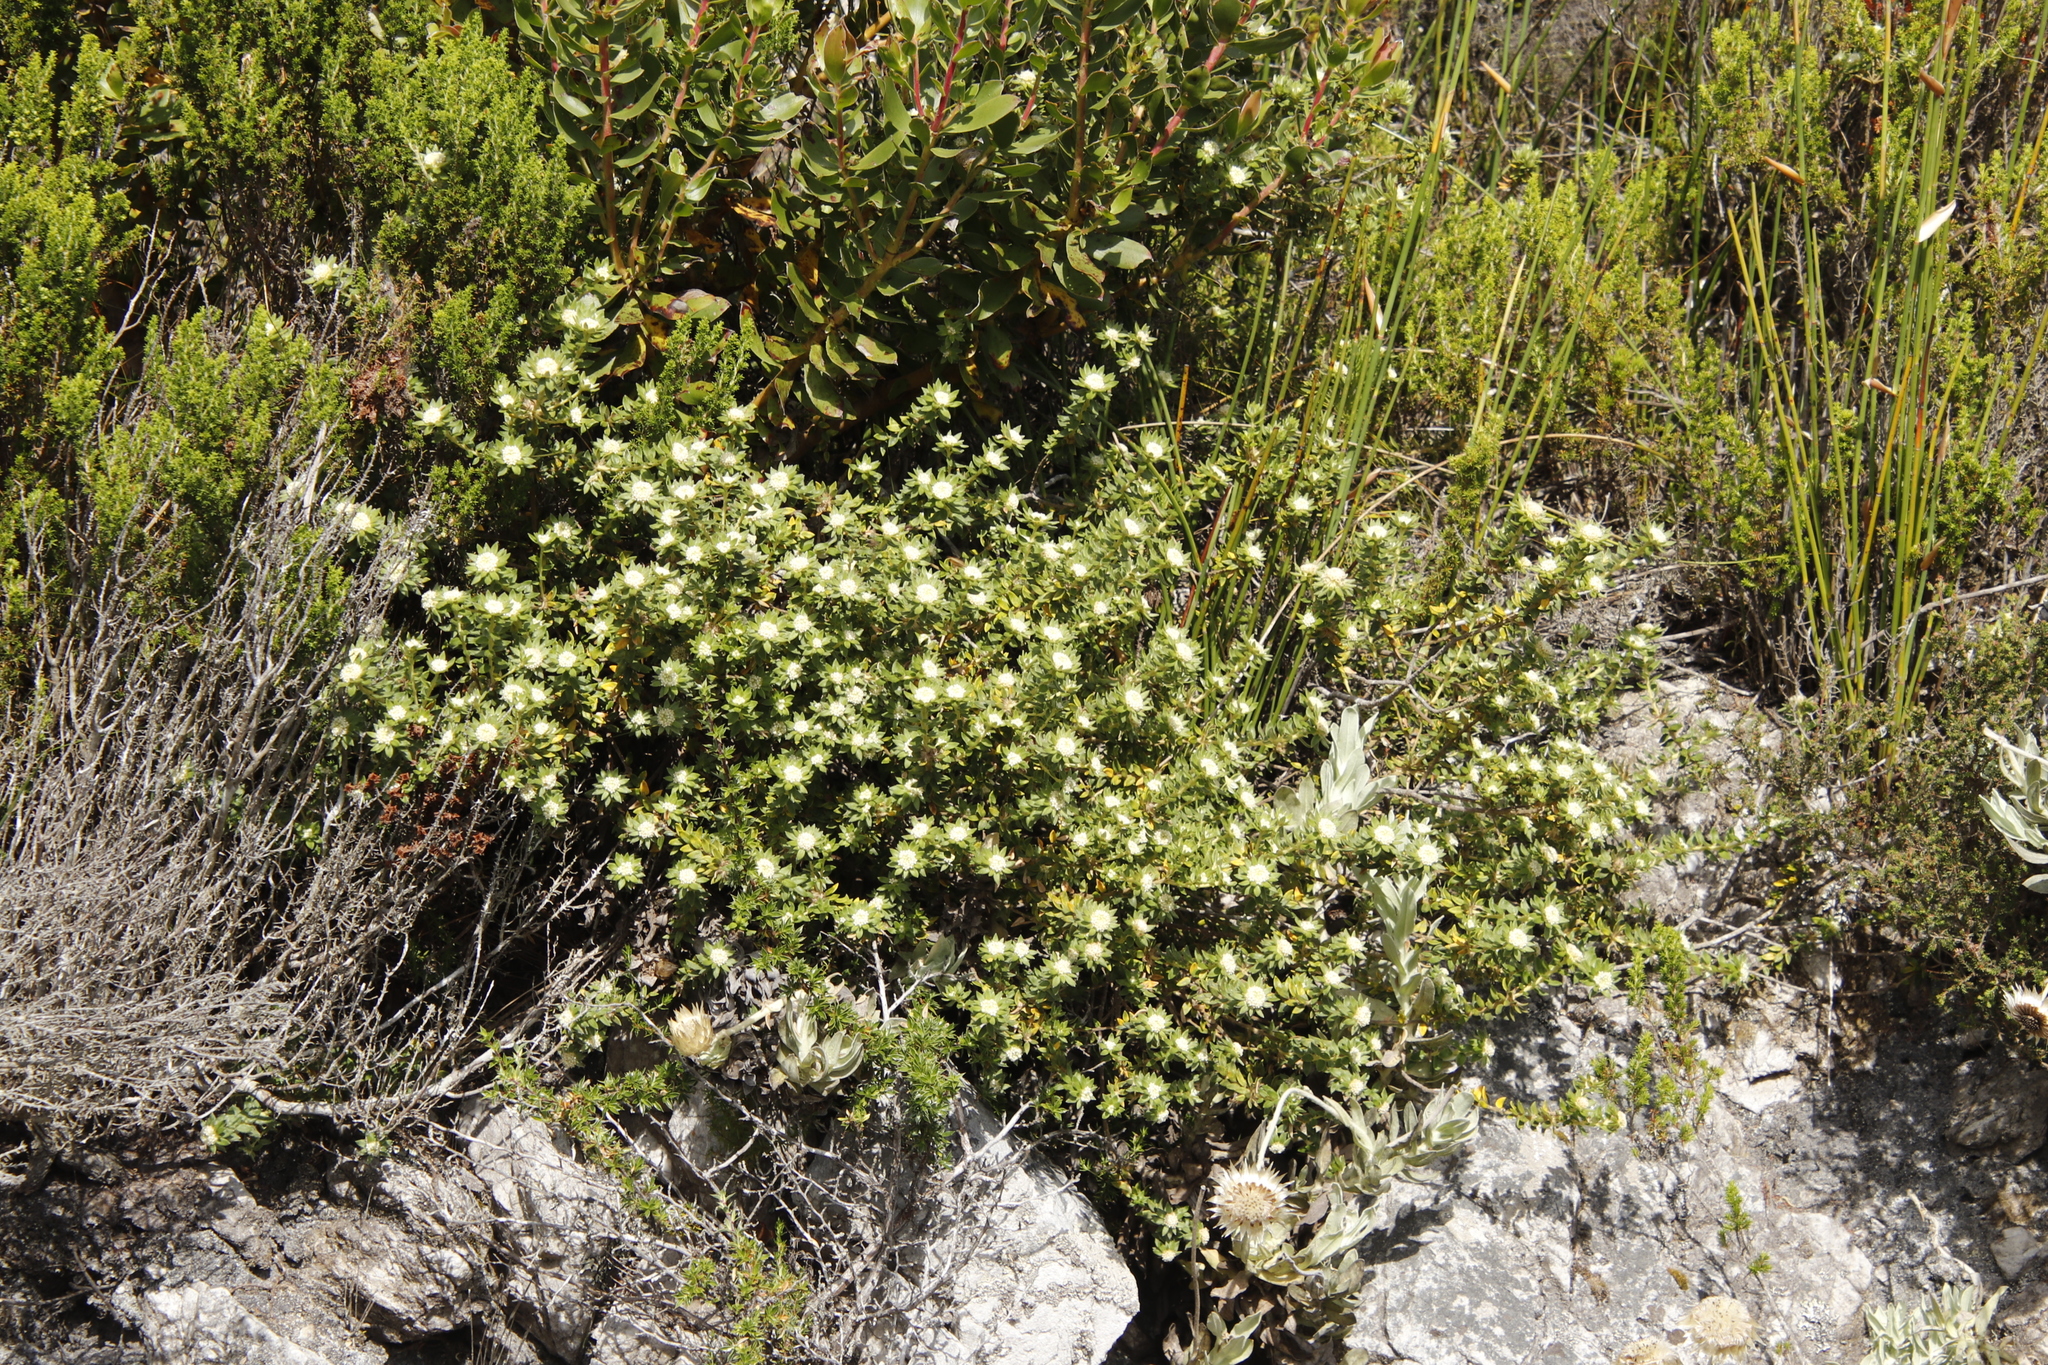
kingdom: Plantae
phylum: Tracheophyta
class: Magnoliopsida
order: Rosales
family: Rhamnaceae
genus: Phylica
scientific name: Phylica dioica
